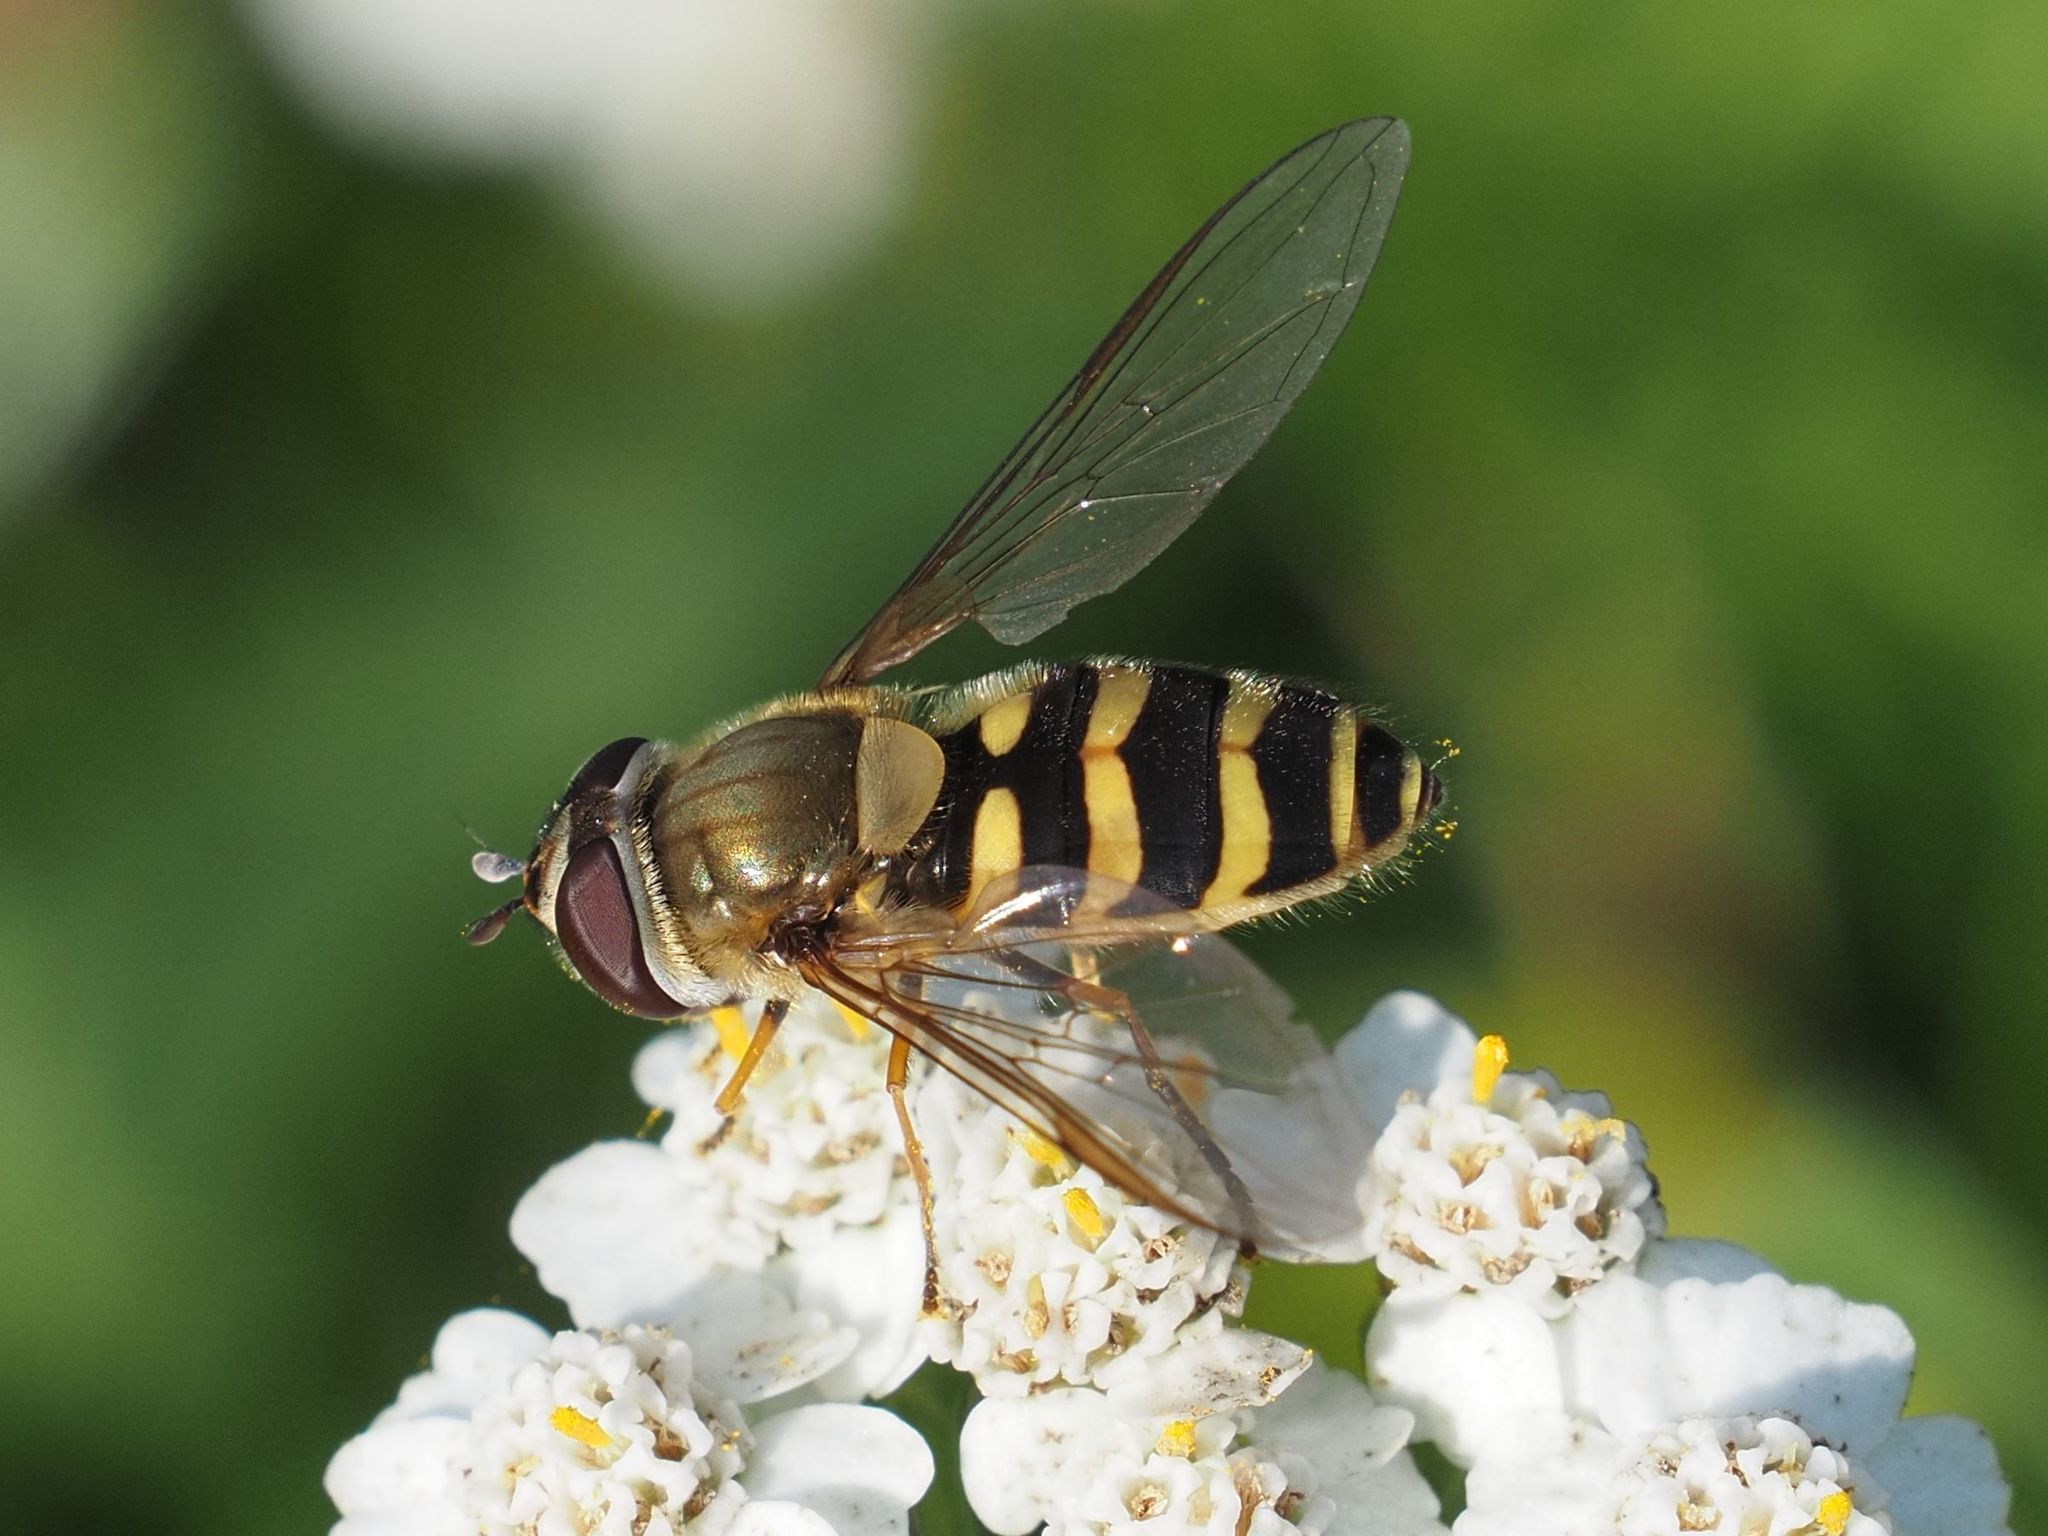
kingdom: Animalia
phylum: Arthropoda
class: Insecta
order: Diptera
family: Syrphidae
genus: Syrphus
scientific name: Syrphus vitripennis
